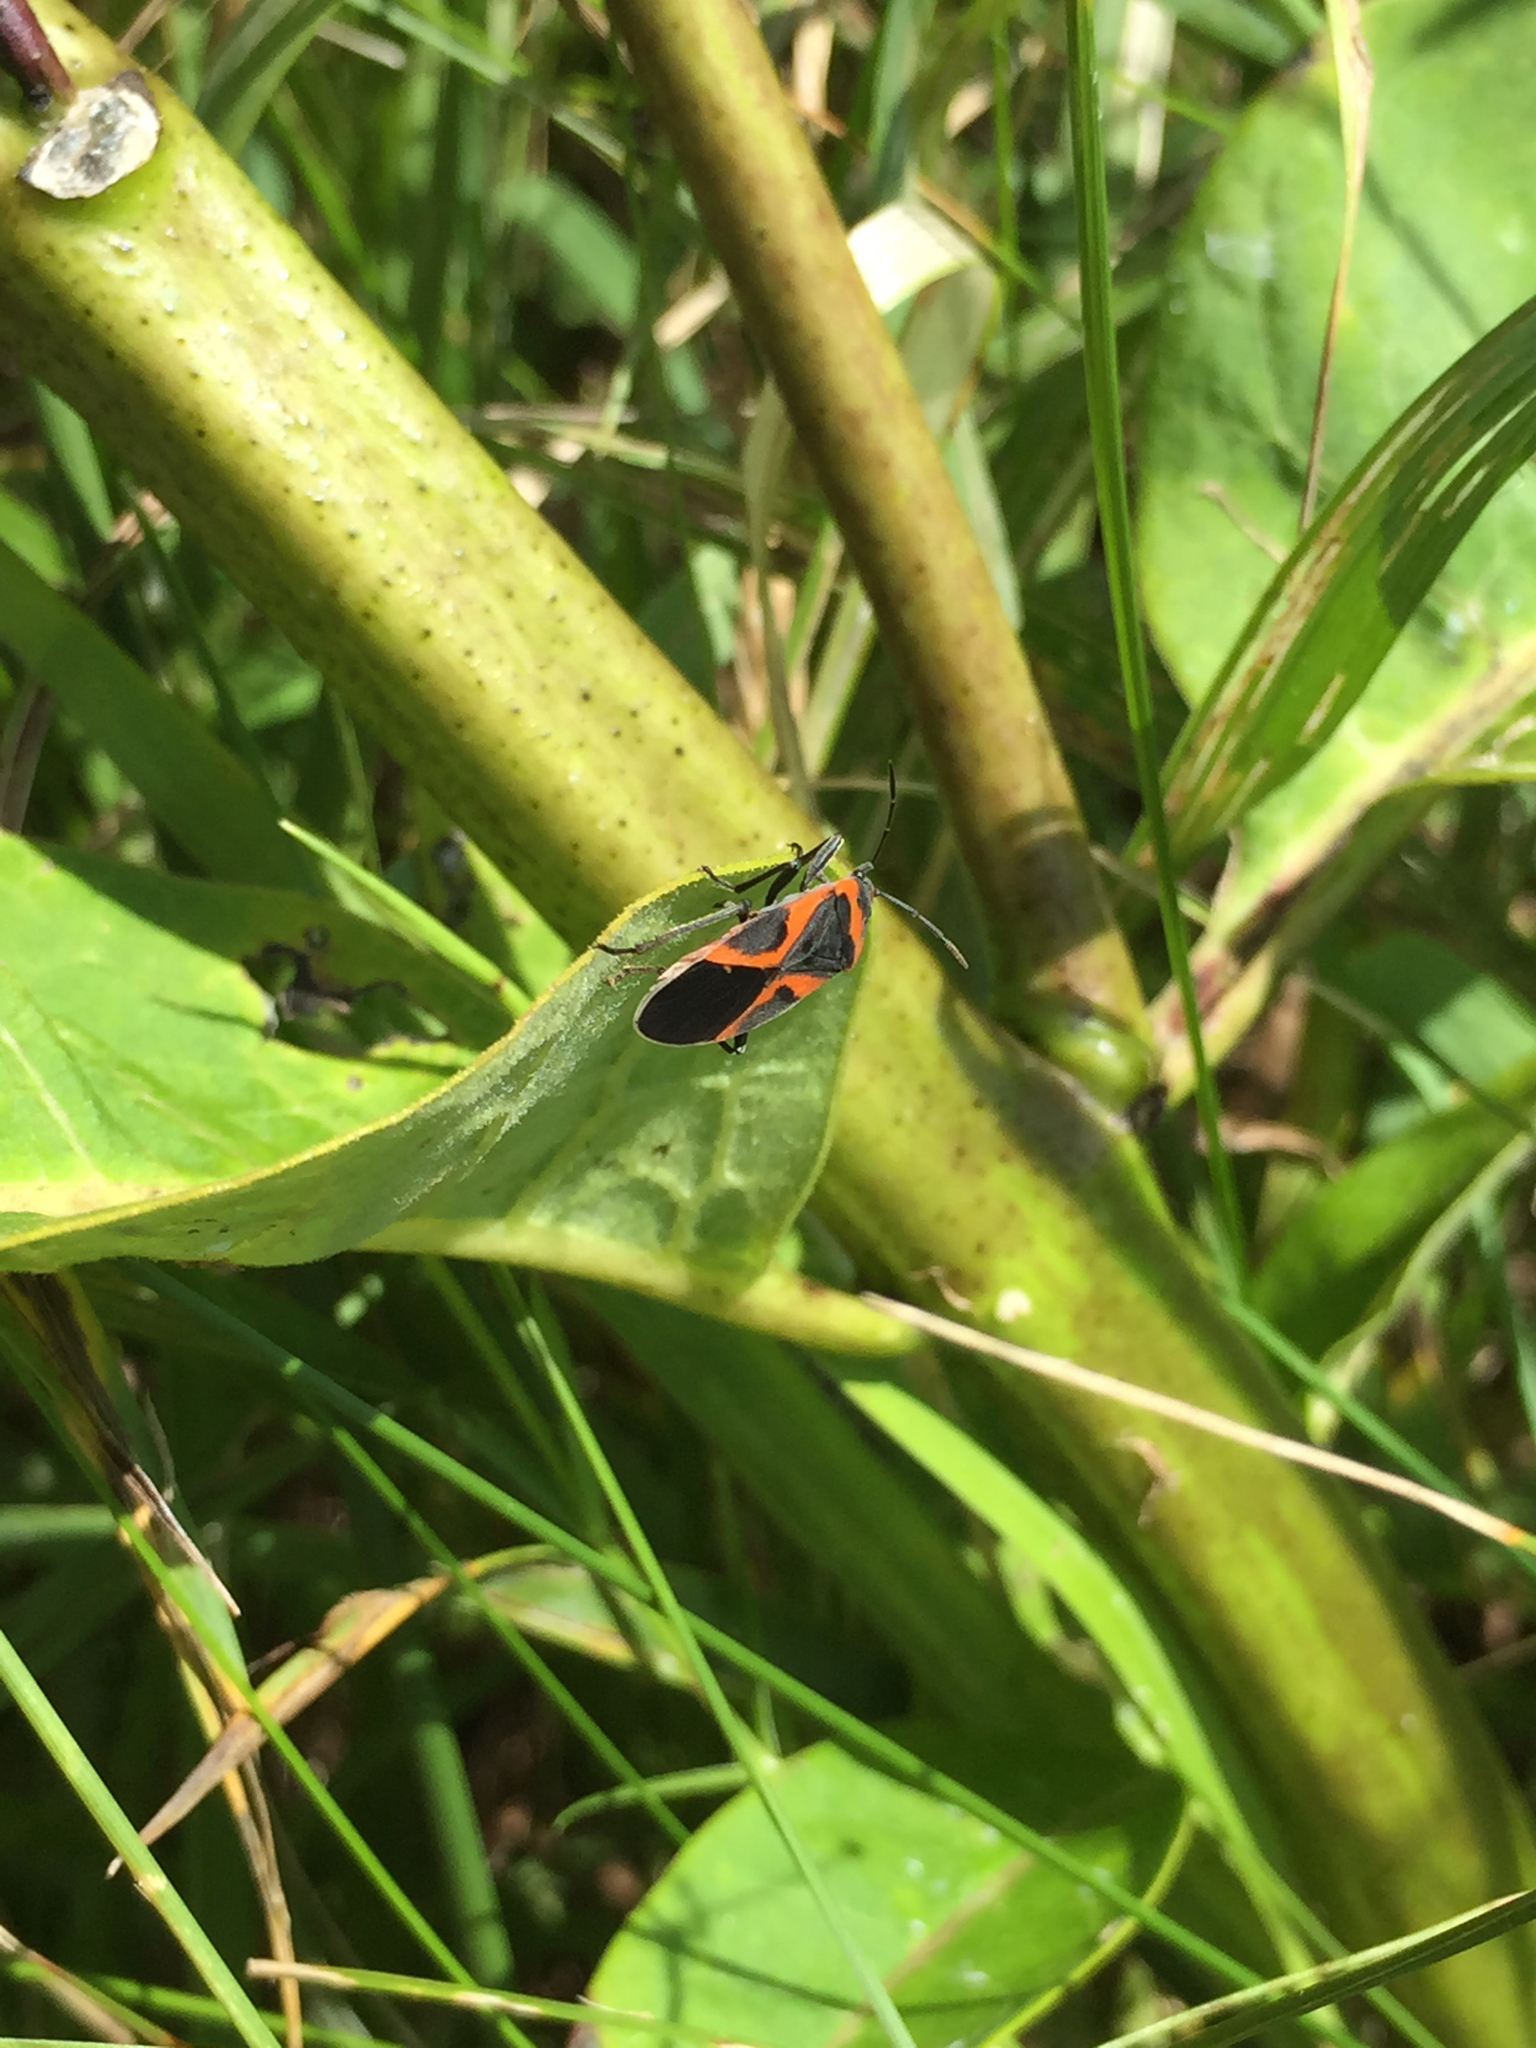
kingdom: Animalia
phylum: Arthropoda
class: Insecta
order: Hemiptera
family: Lygaeidae
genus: Lygaeus
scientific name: Lygaeus kalmii
